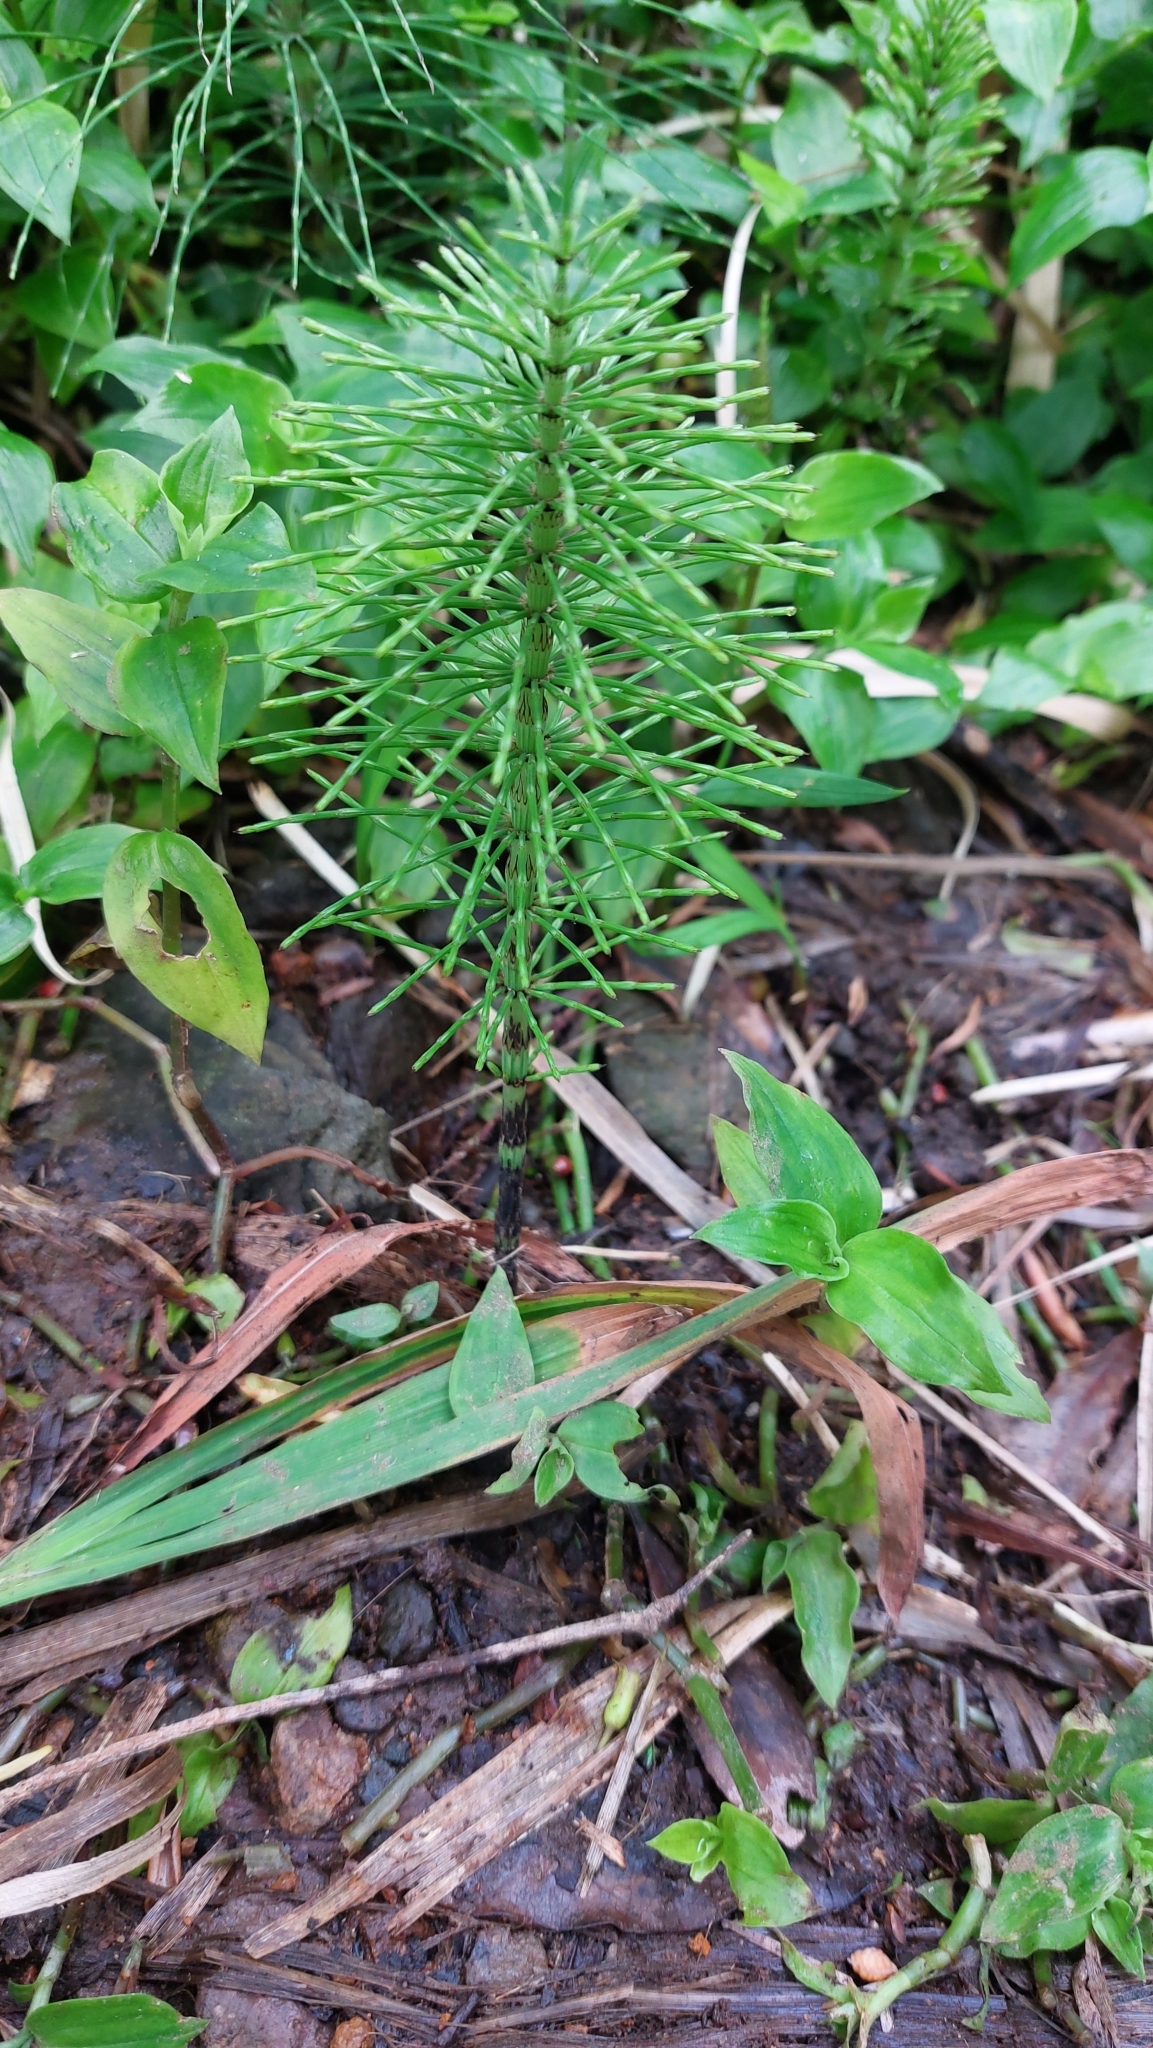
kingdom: Plantae
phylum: Tracheophyta
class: Polypodiopsida
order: Equisetales
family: Equisetaceae
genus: Equisetum
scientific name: Equisetum telmateia
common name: Great horsetail
